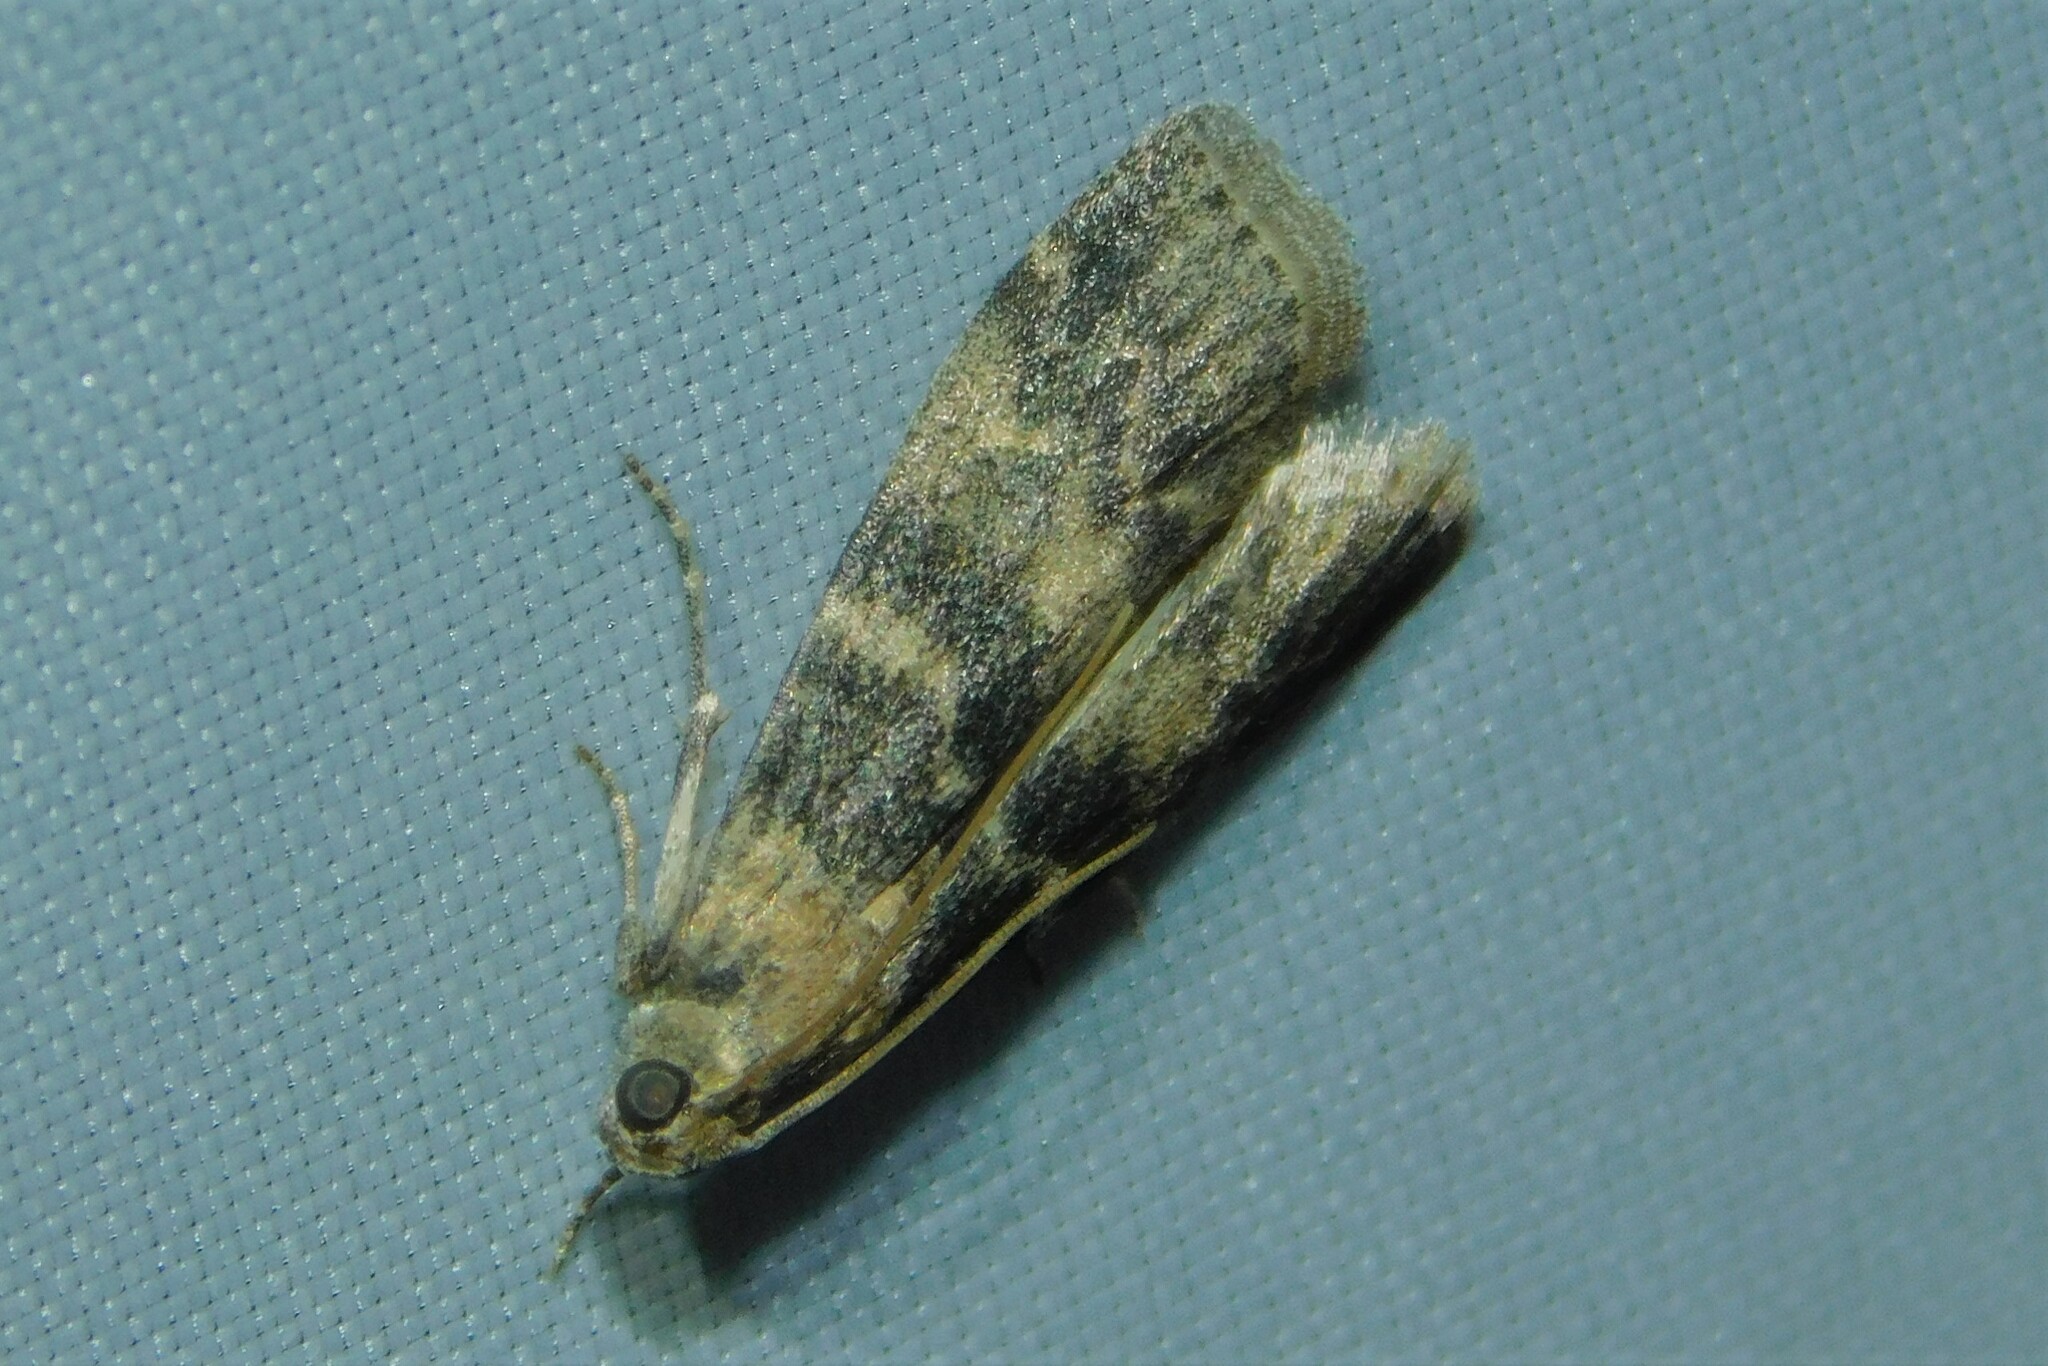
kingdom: Animalia
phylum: Arthropoda
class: Insecta
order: Lepidoptera
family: Pyralidae
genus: Euzophera
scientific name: Euzophera pinguis
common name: Ash-bark knot-horn
